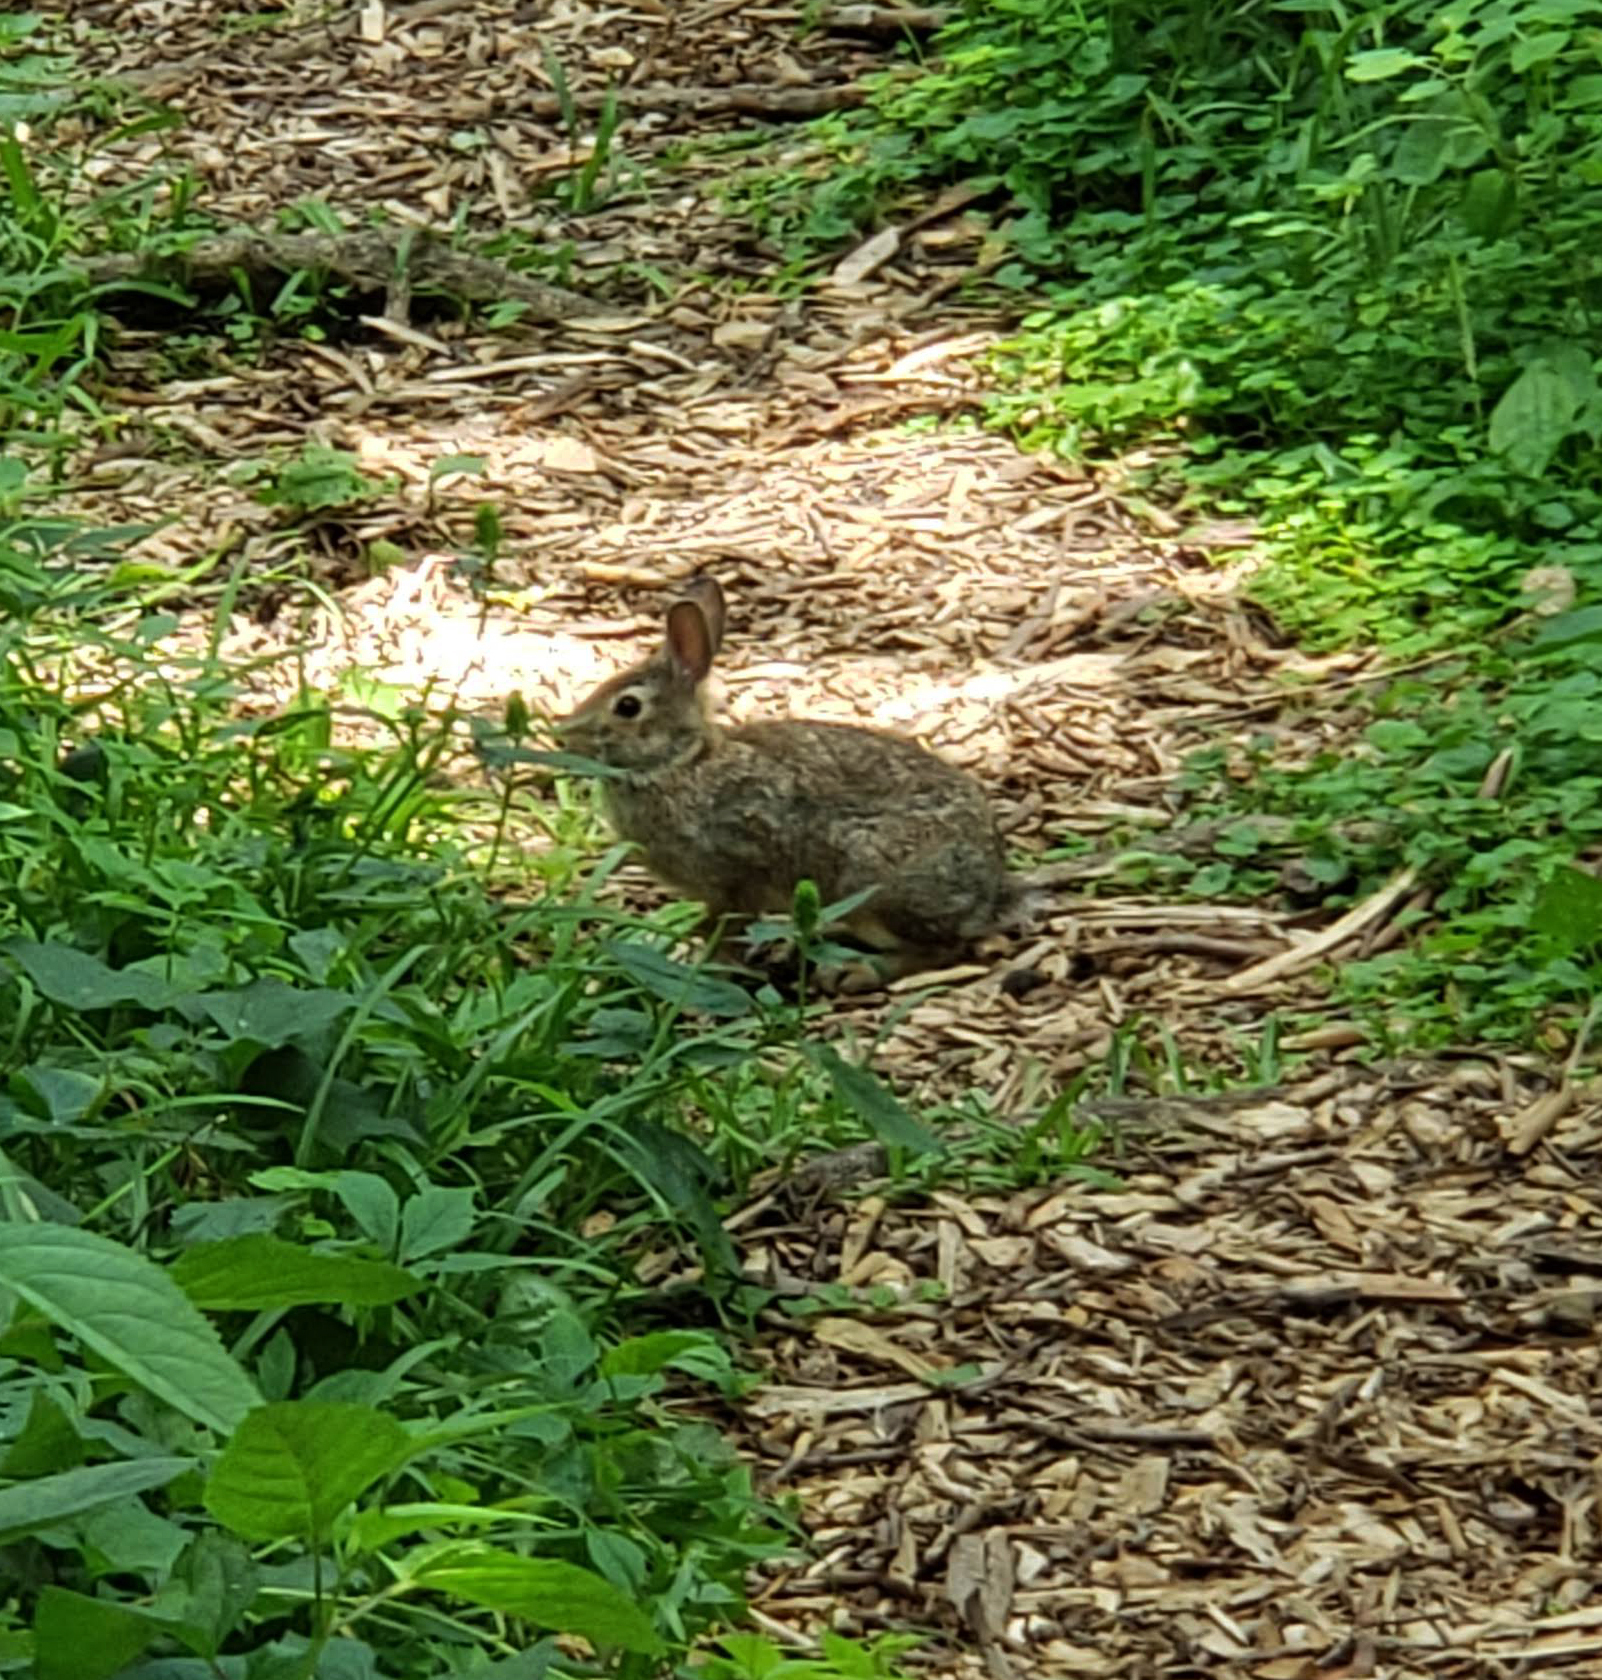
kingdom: Animalia
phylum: Chordata
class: Mammalia
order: Lagomorpha
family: Leporidae
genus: Sylvilagus
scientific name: Sylvilagus floridanus
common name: Eastern cottontail
